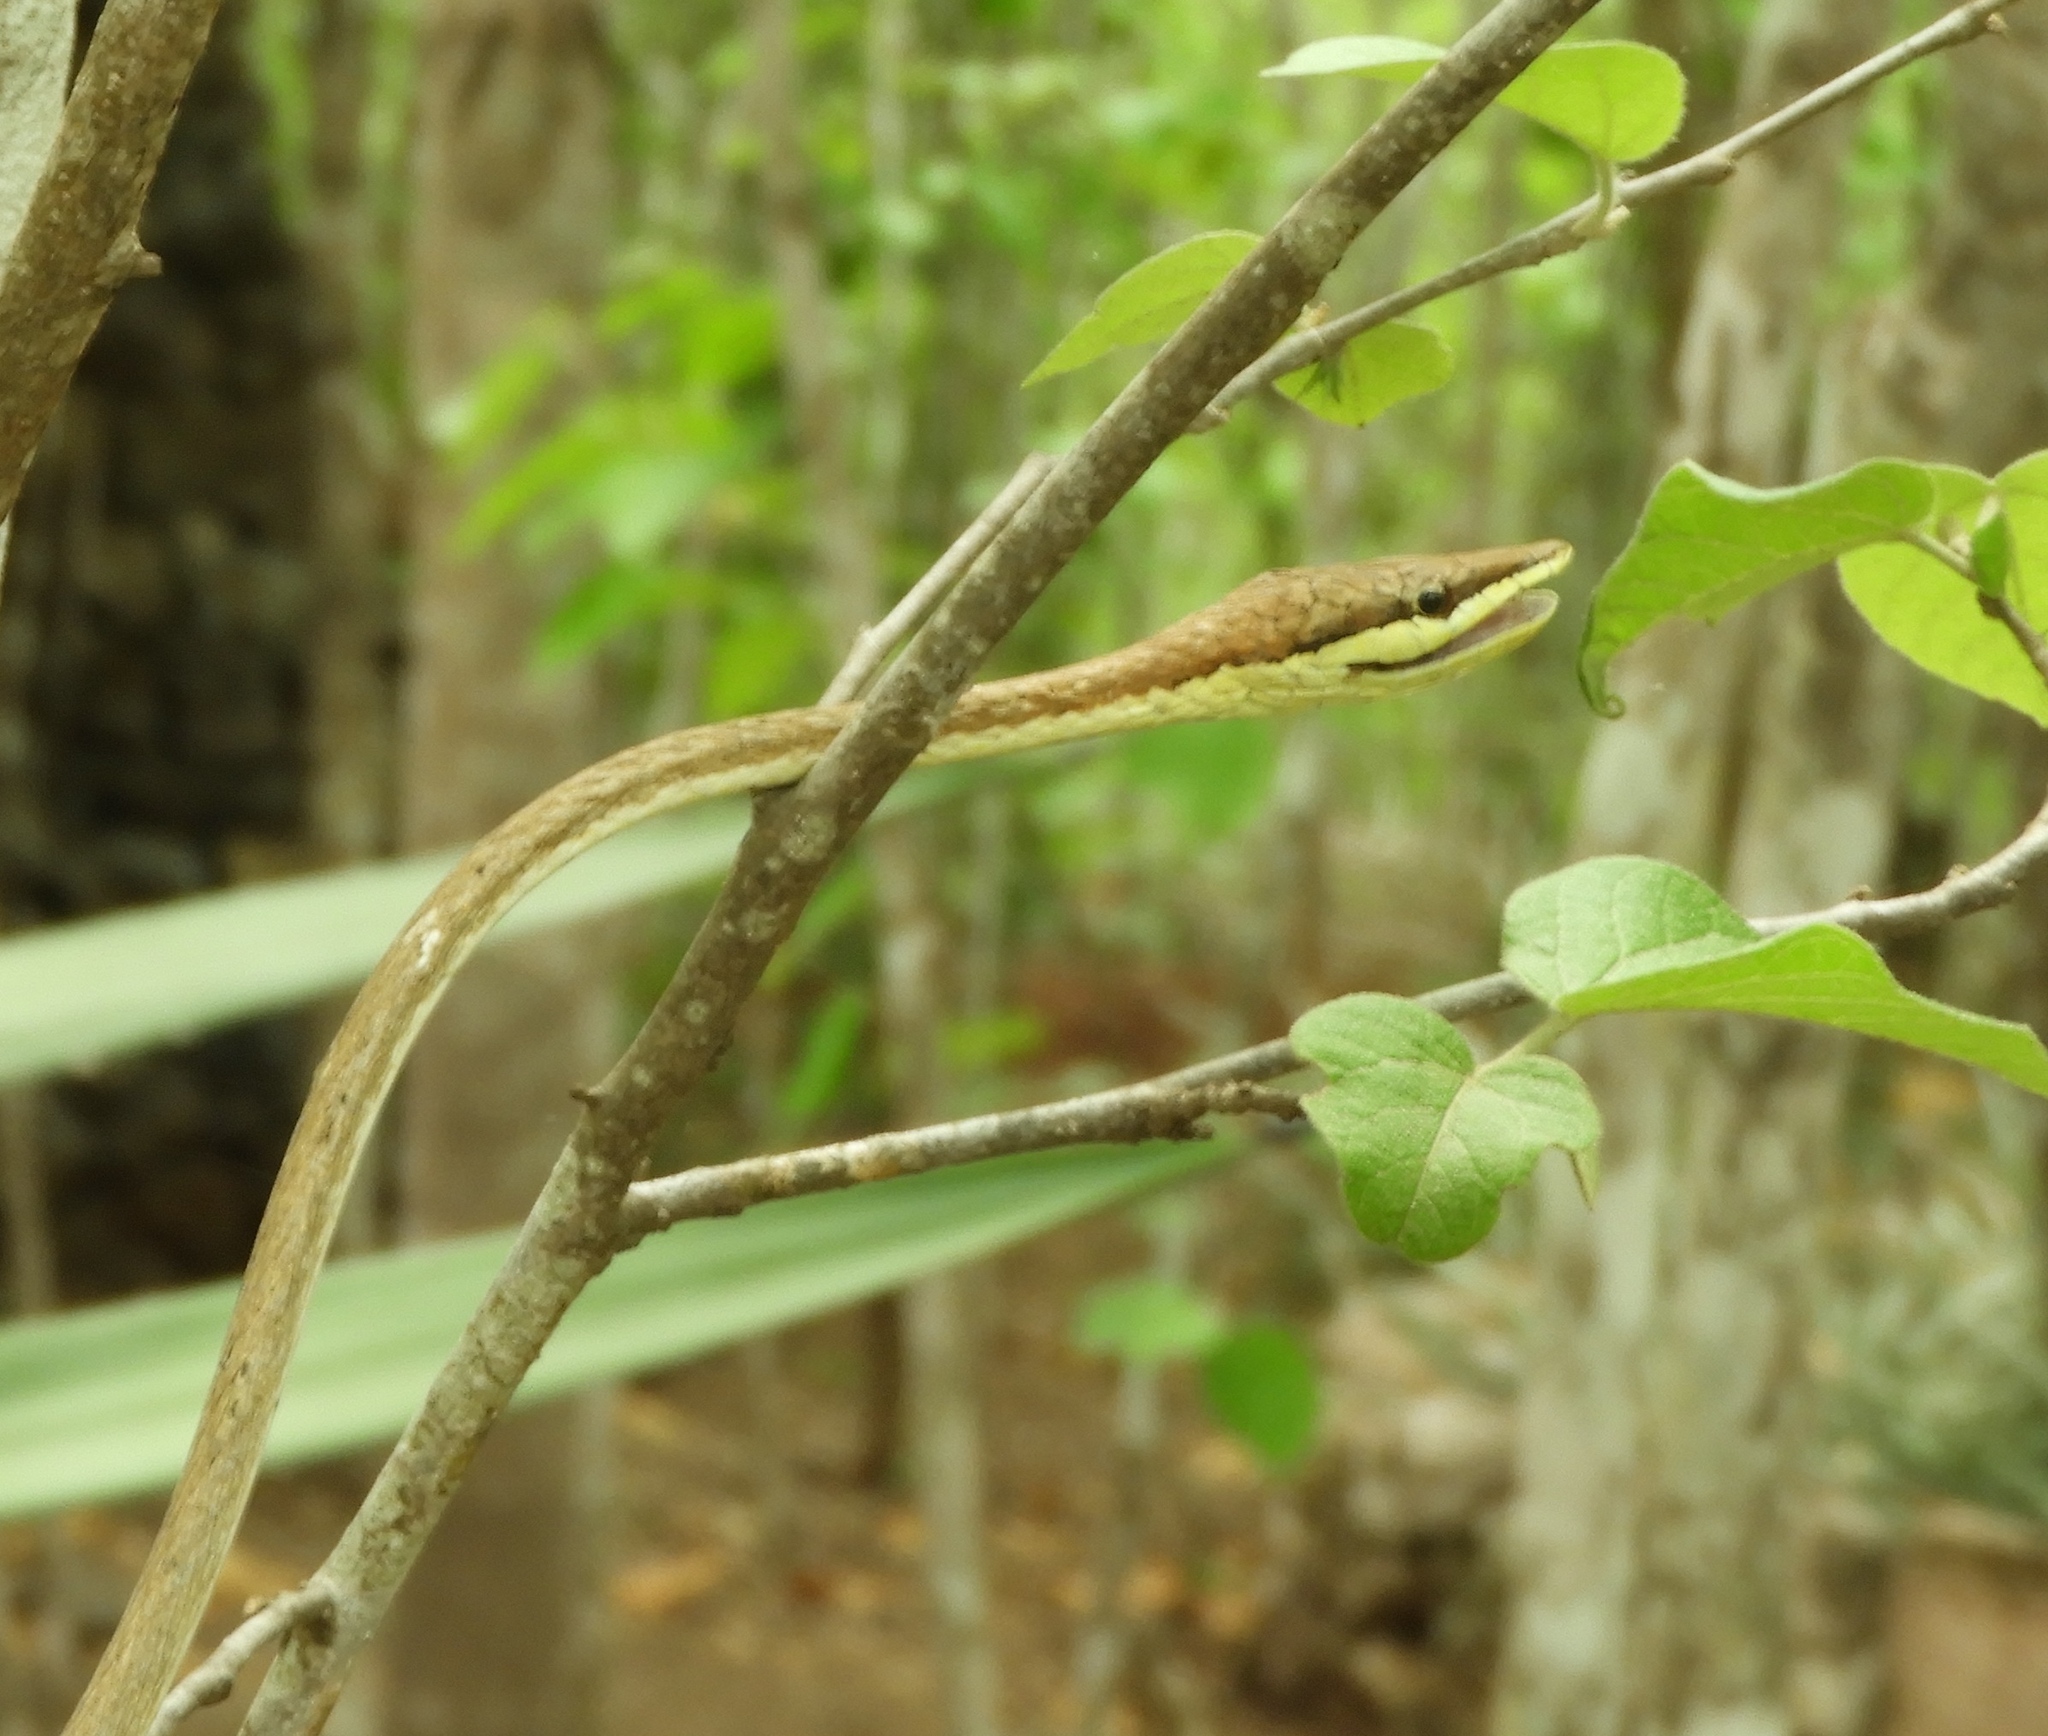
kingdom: Animalia
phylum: Chordata
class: Squamata
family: Colubridae
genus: Oxybelis
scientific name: Oxybelis microphthalmus
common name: Thrornscrub vine snake
